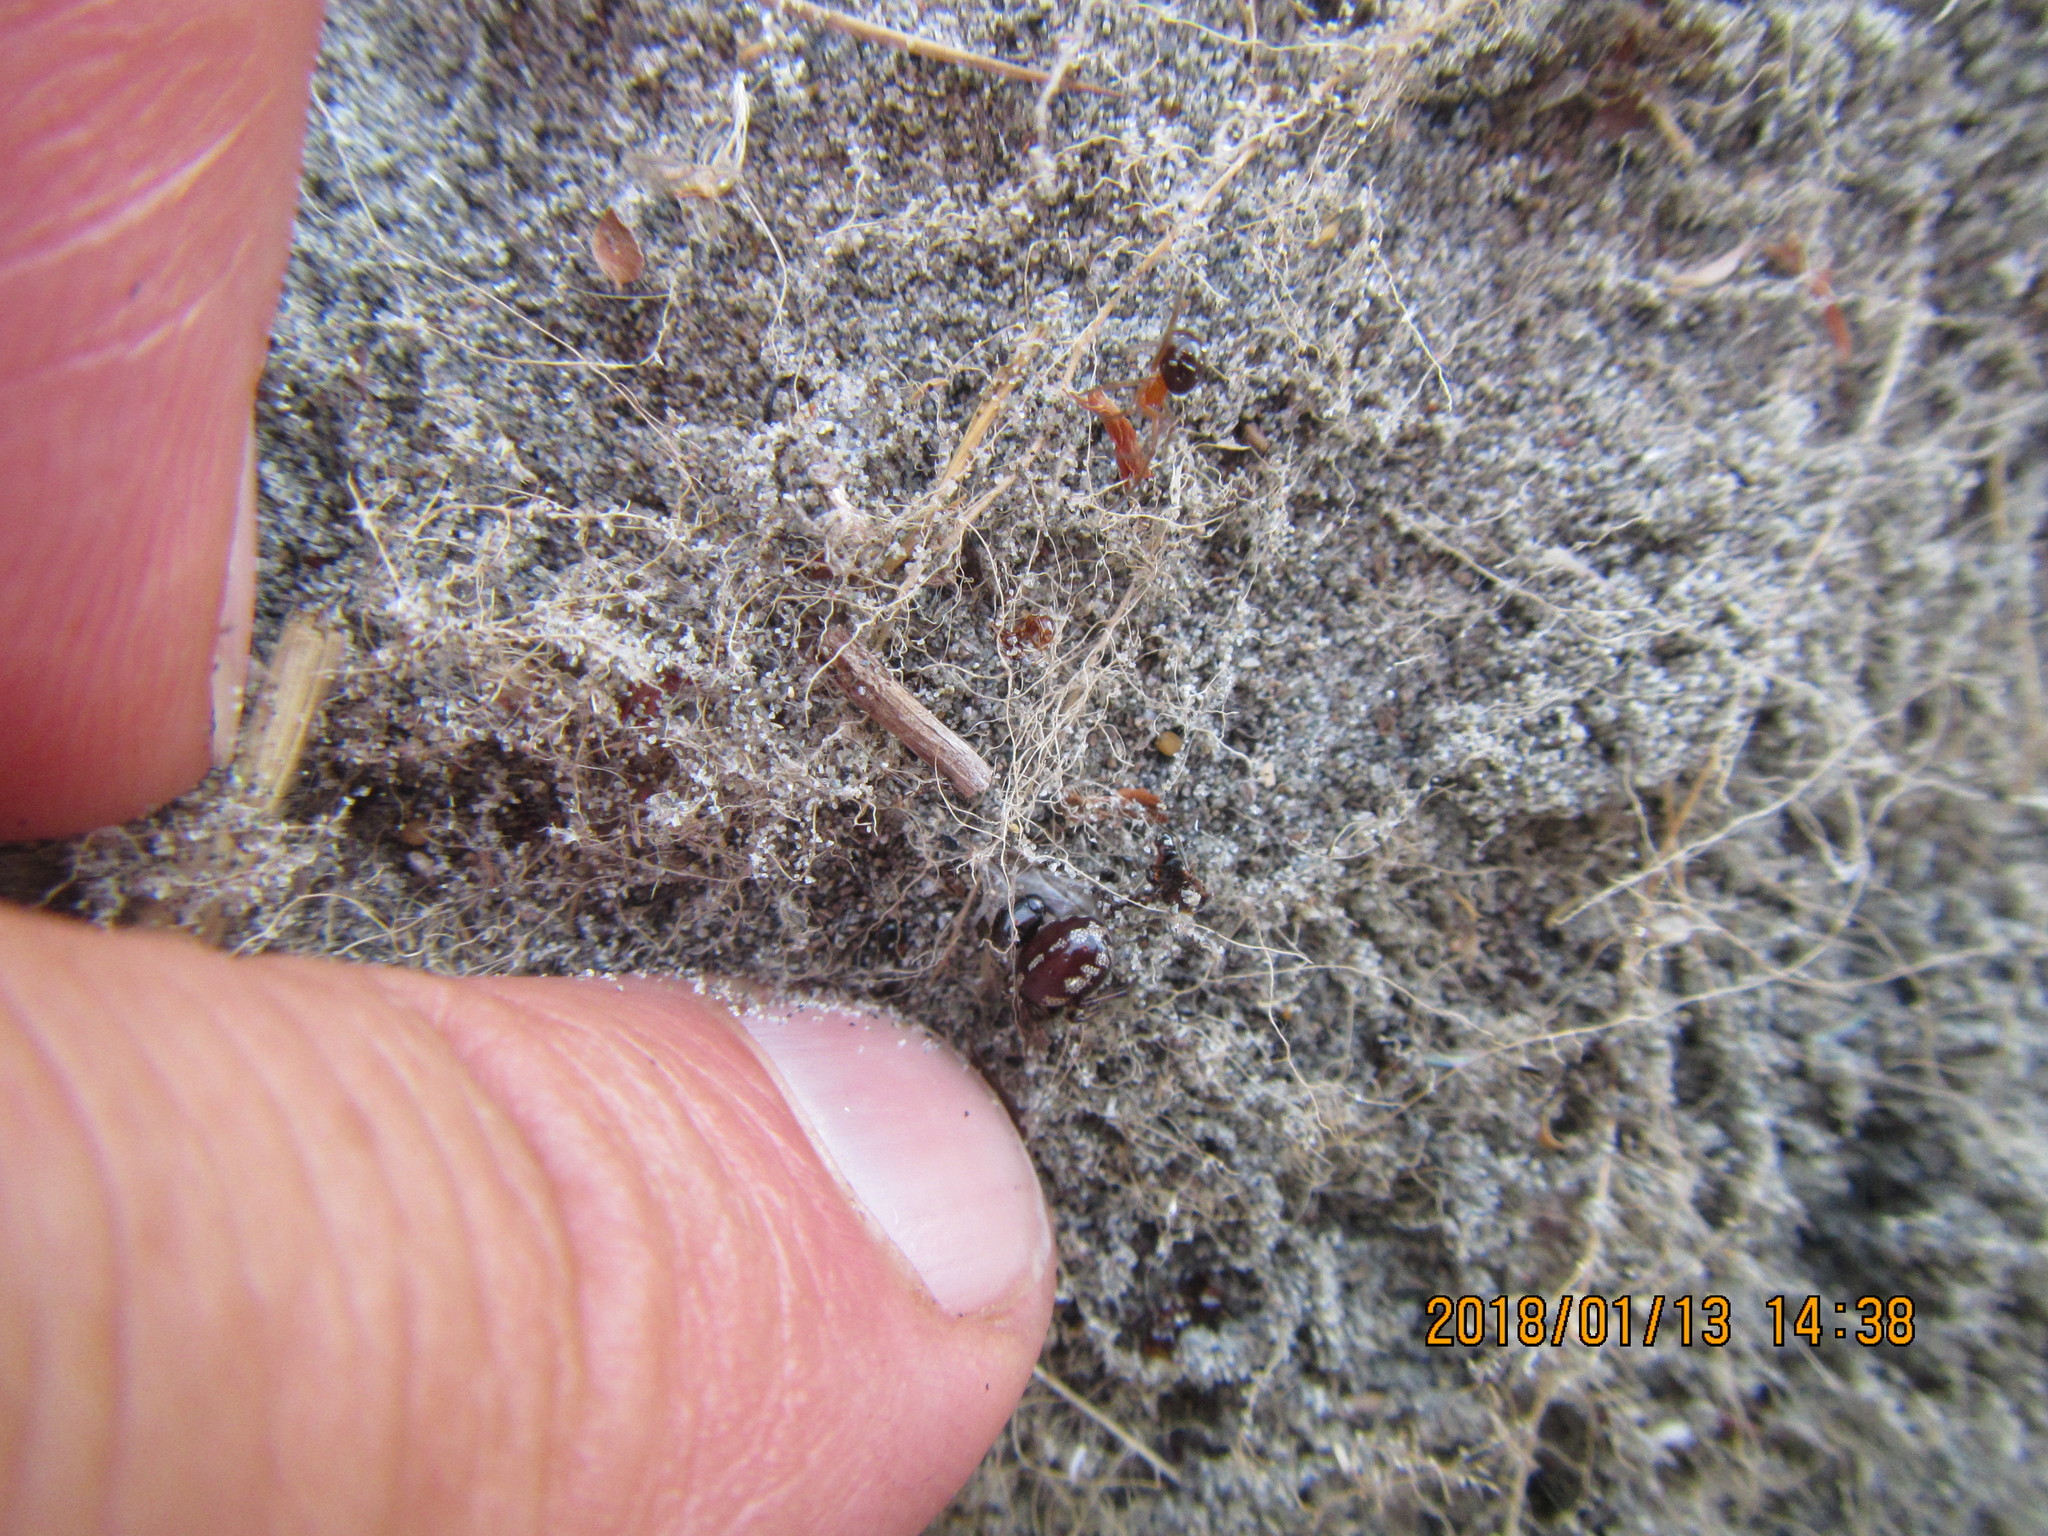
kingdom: Animalia
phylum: Arthropoda
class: Arachnida
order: Araneae
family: Theridiidae
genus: Steatoda
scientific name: Steatoda lepida
